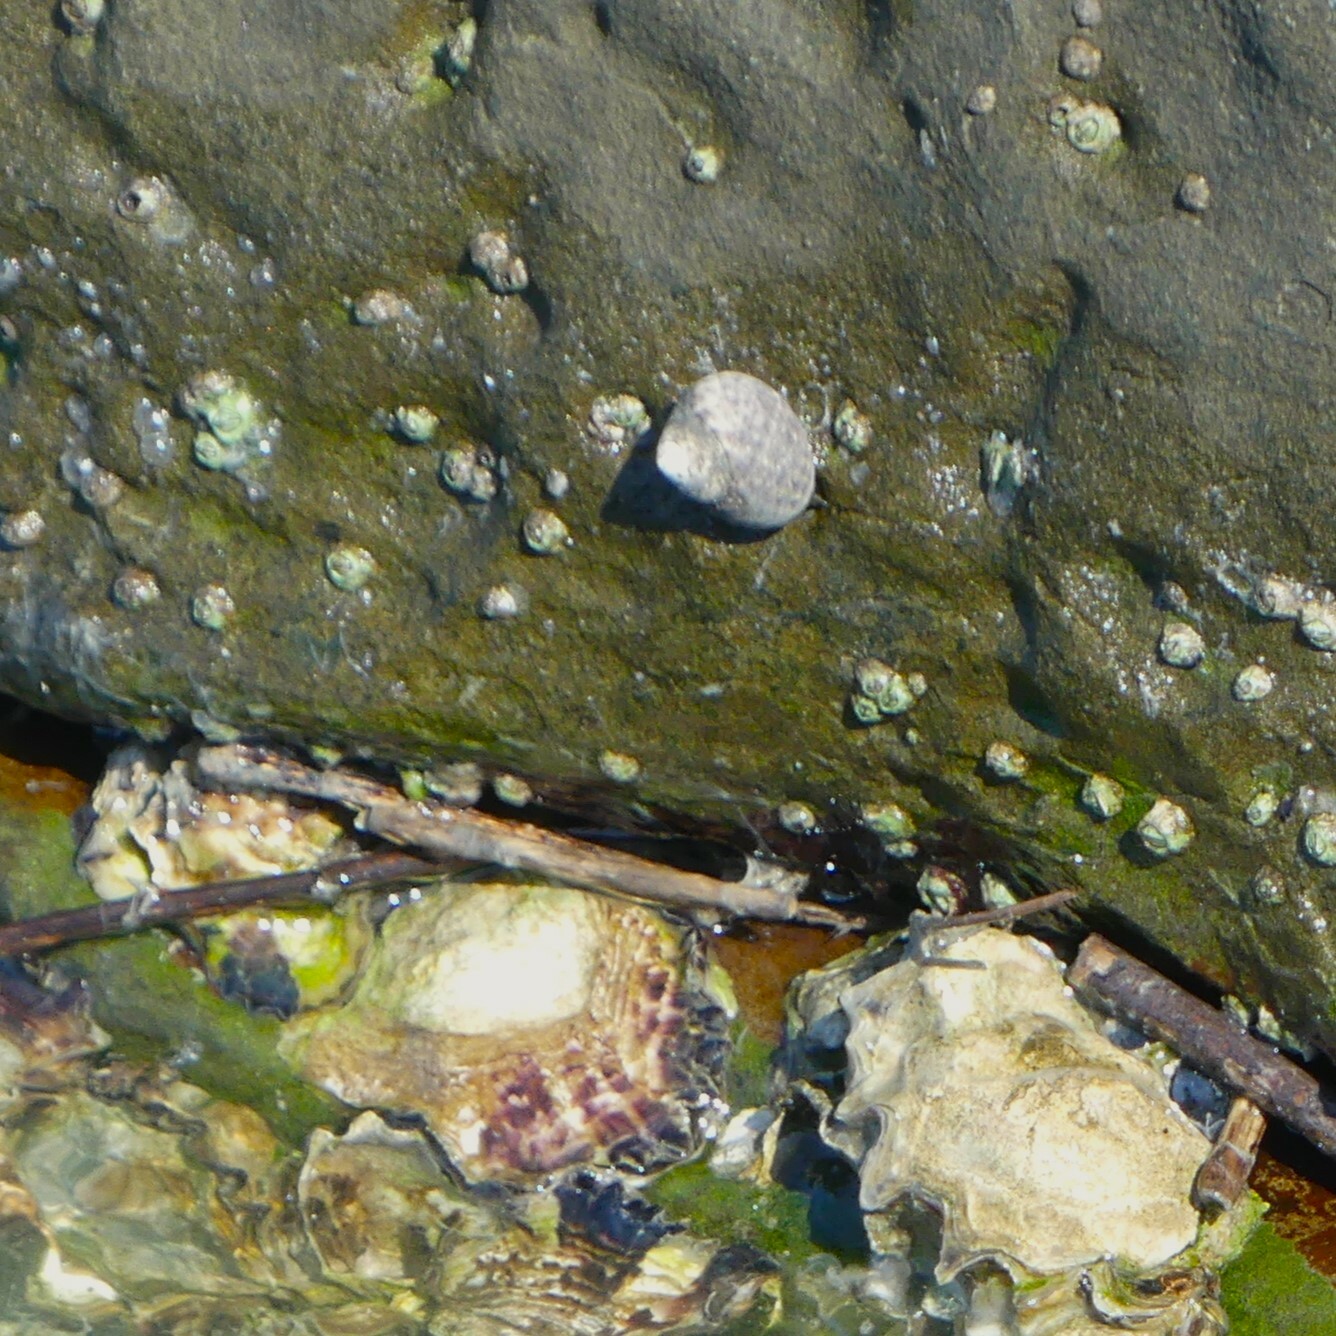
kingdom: Animalia
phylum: Mollusca
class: Gastropoda
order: Trochida
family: Trochidae
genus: Phorcus
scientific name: Phorcus turbinatus
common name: Turbinate monodont
